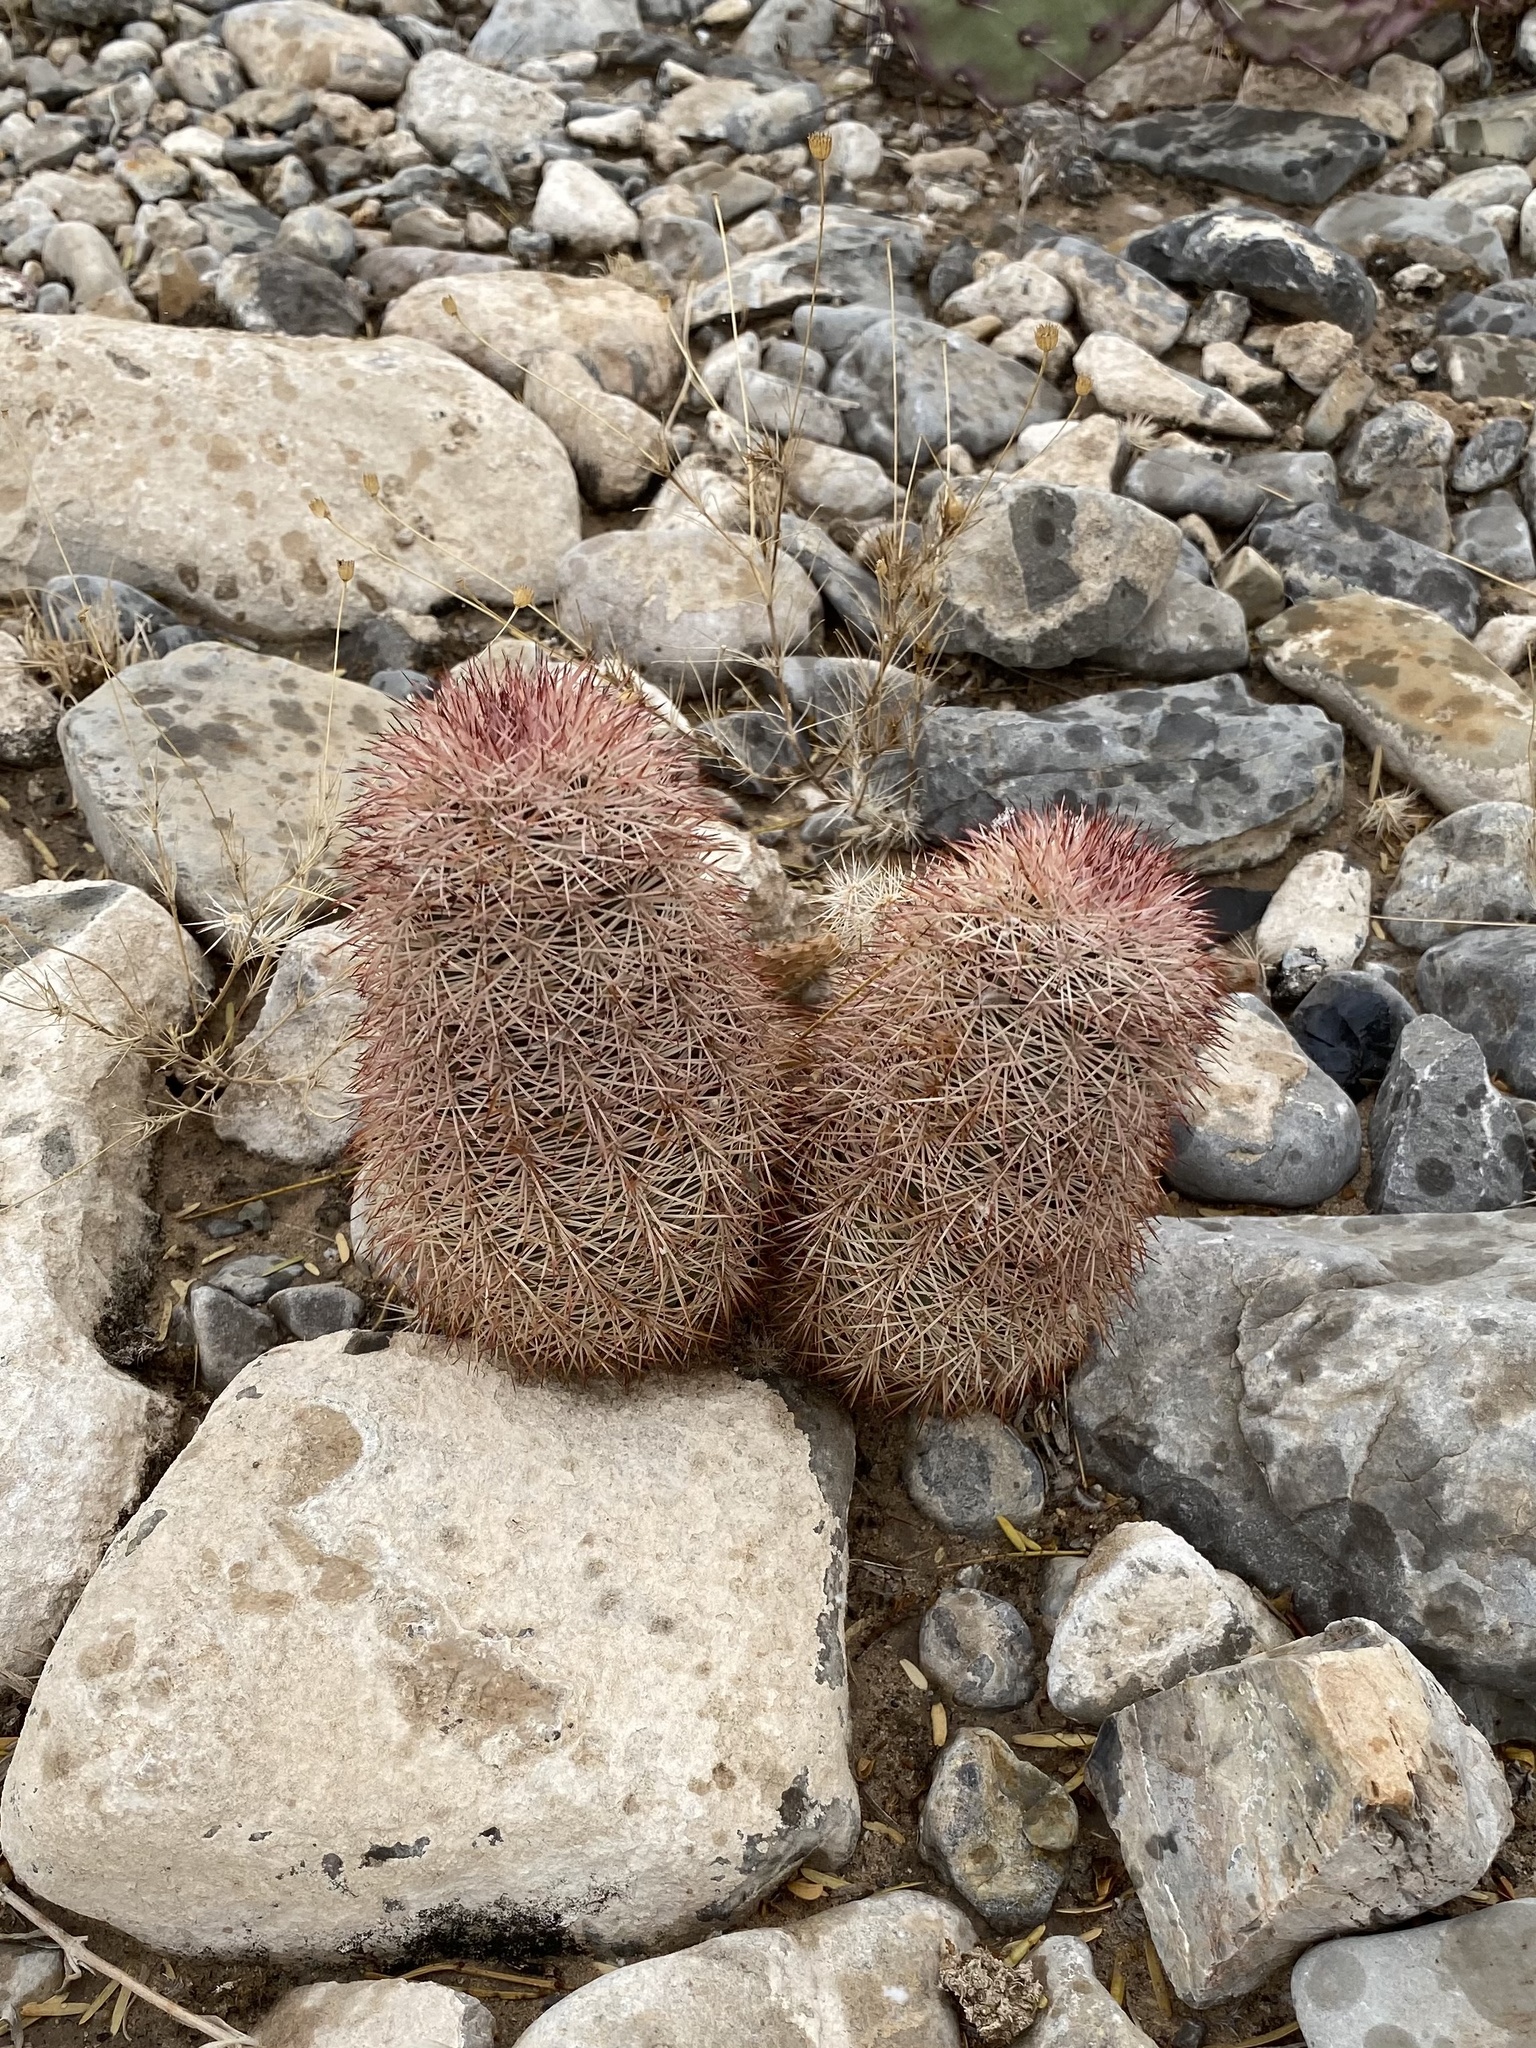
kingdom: Plantae
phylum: Tracheophyta
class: Magnoliopsida
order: Caryophyllales
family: Cactaceae
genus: Echinocereus
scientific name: Echinocereus dasyacanthus
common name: Spiny hedgehog cactus
